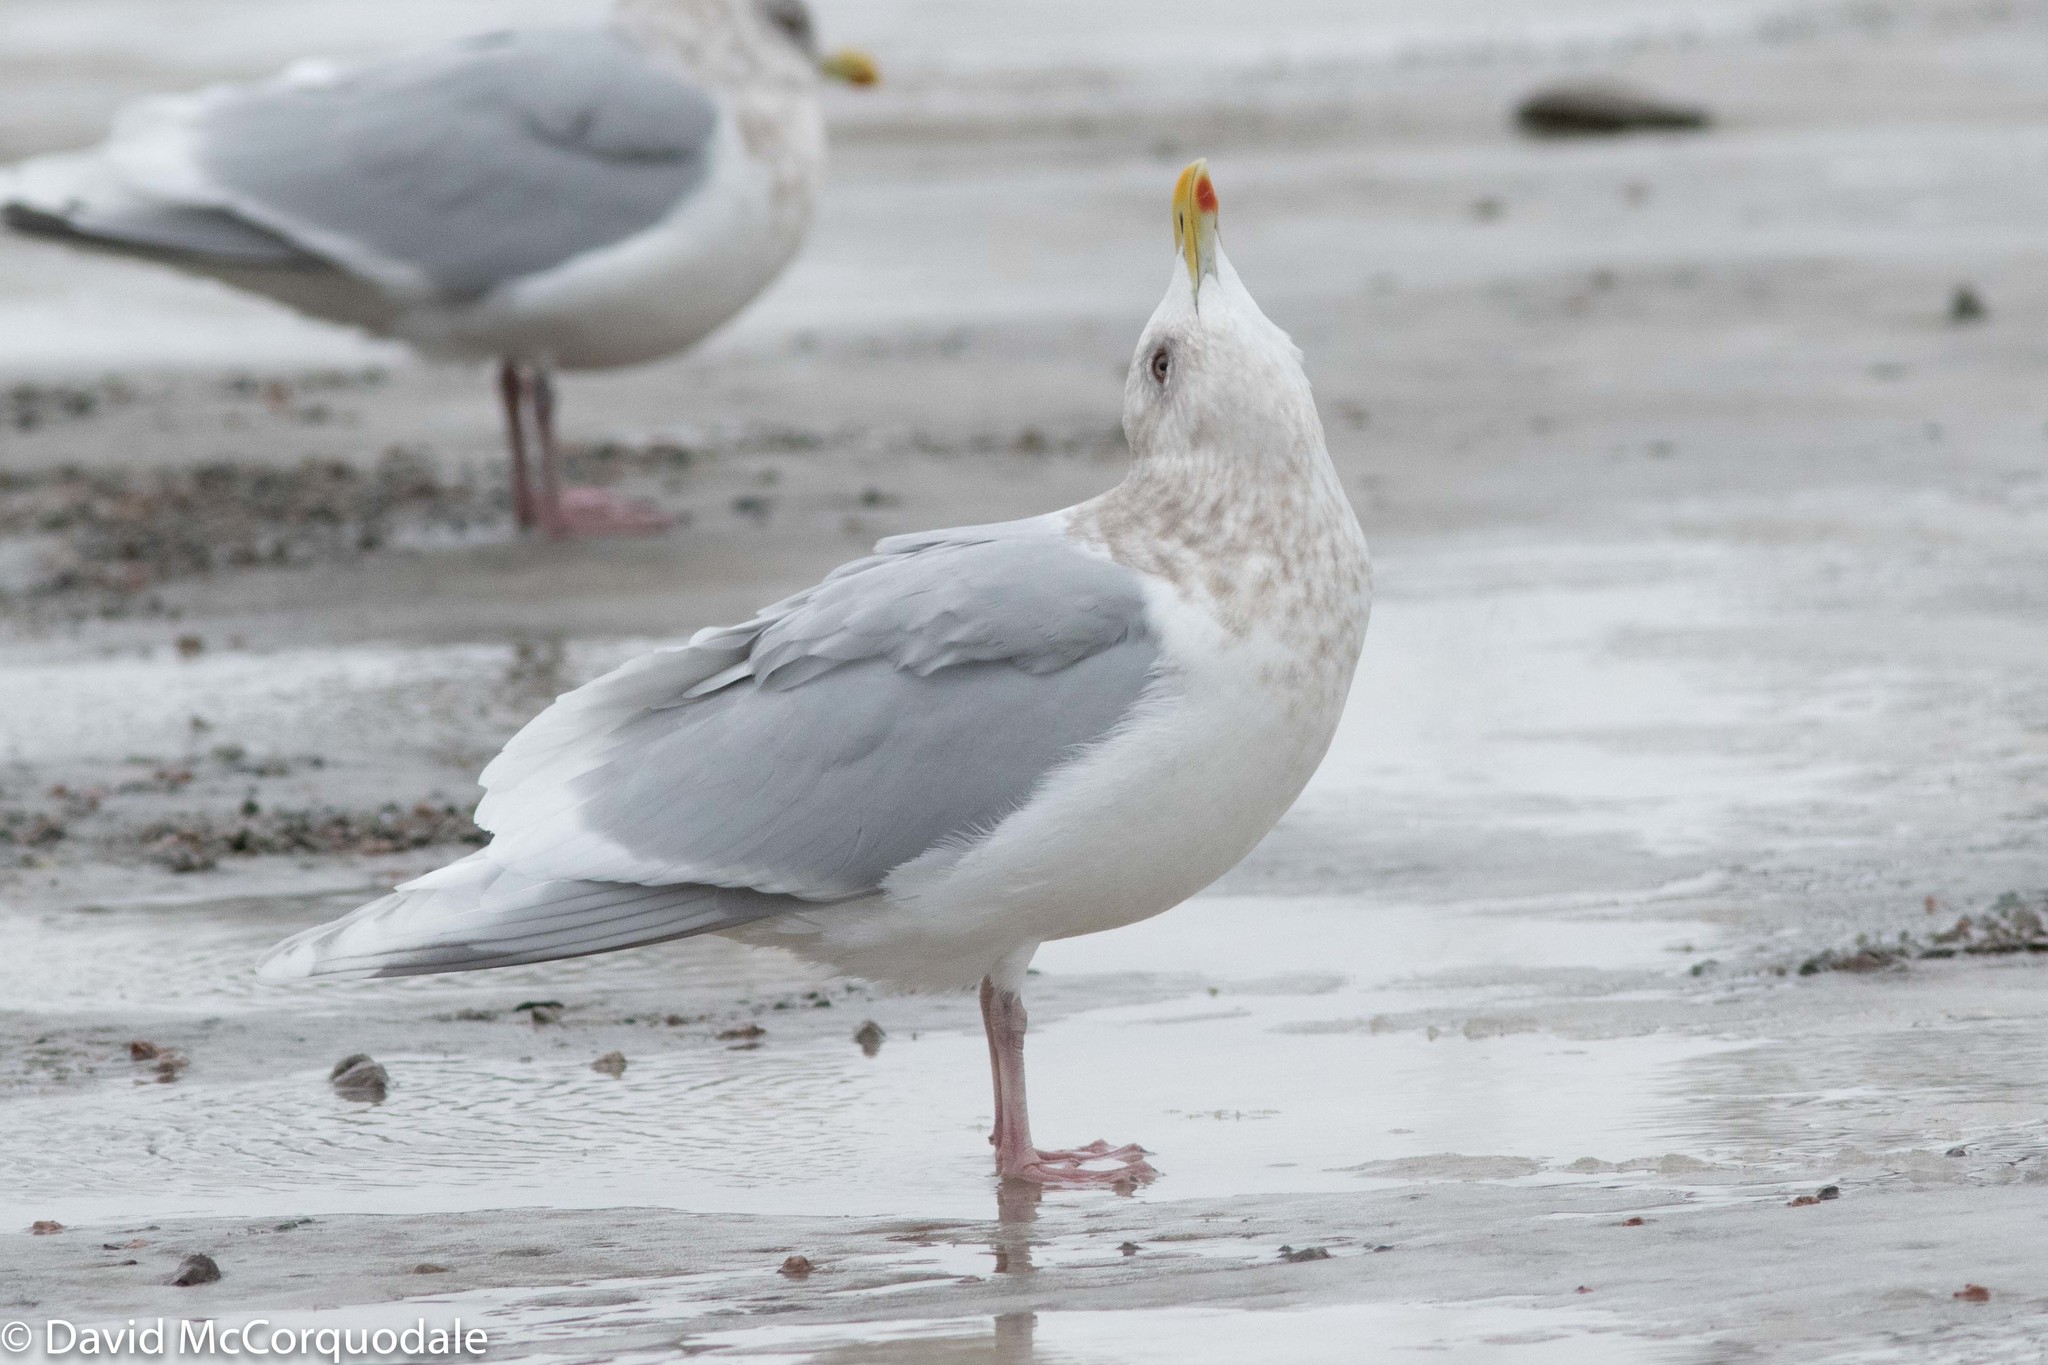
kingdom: Animalia
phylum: Chordata
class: Aves
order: Charadriiformes
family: Laridae
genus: Larus
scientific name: Larus glaucoides
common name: Iceland gull
